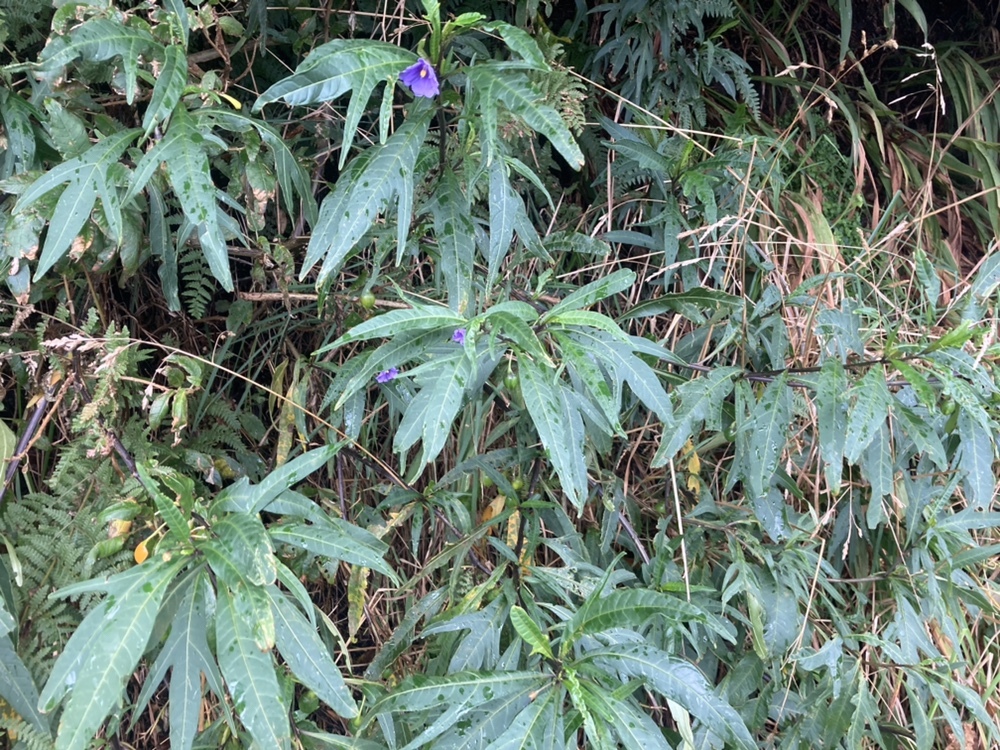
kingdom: Plantae
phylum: Tracheophyta
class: Magnoliopsida
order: Solanales
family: Solanaceae
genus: Solanum
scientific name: Solanum laciniatum
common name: Kangaroo-apple
